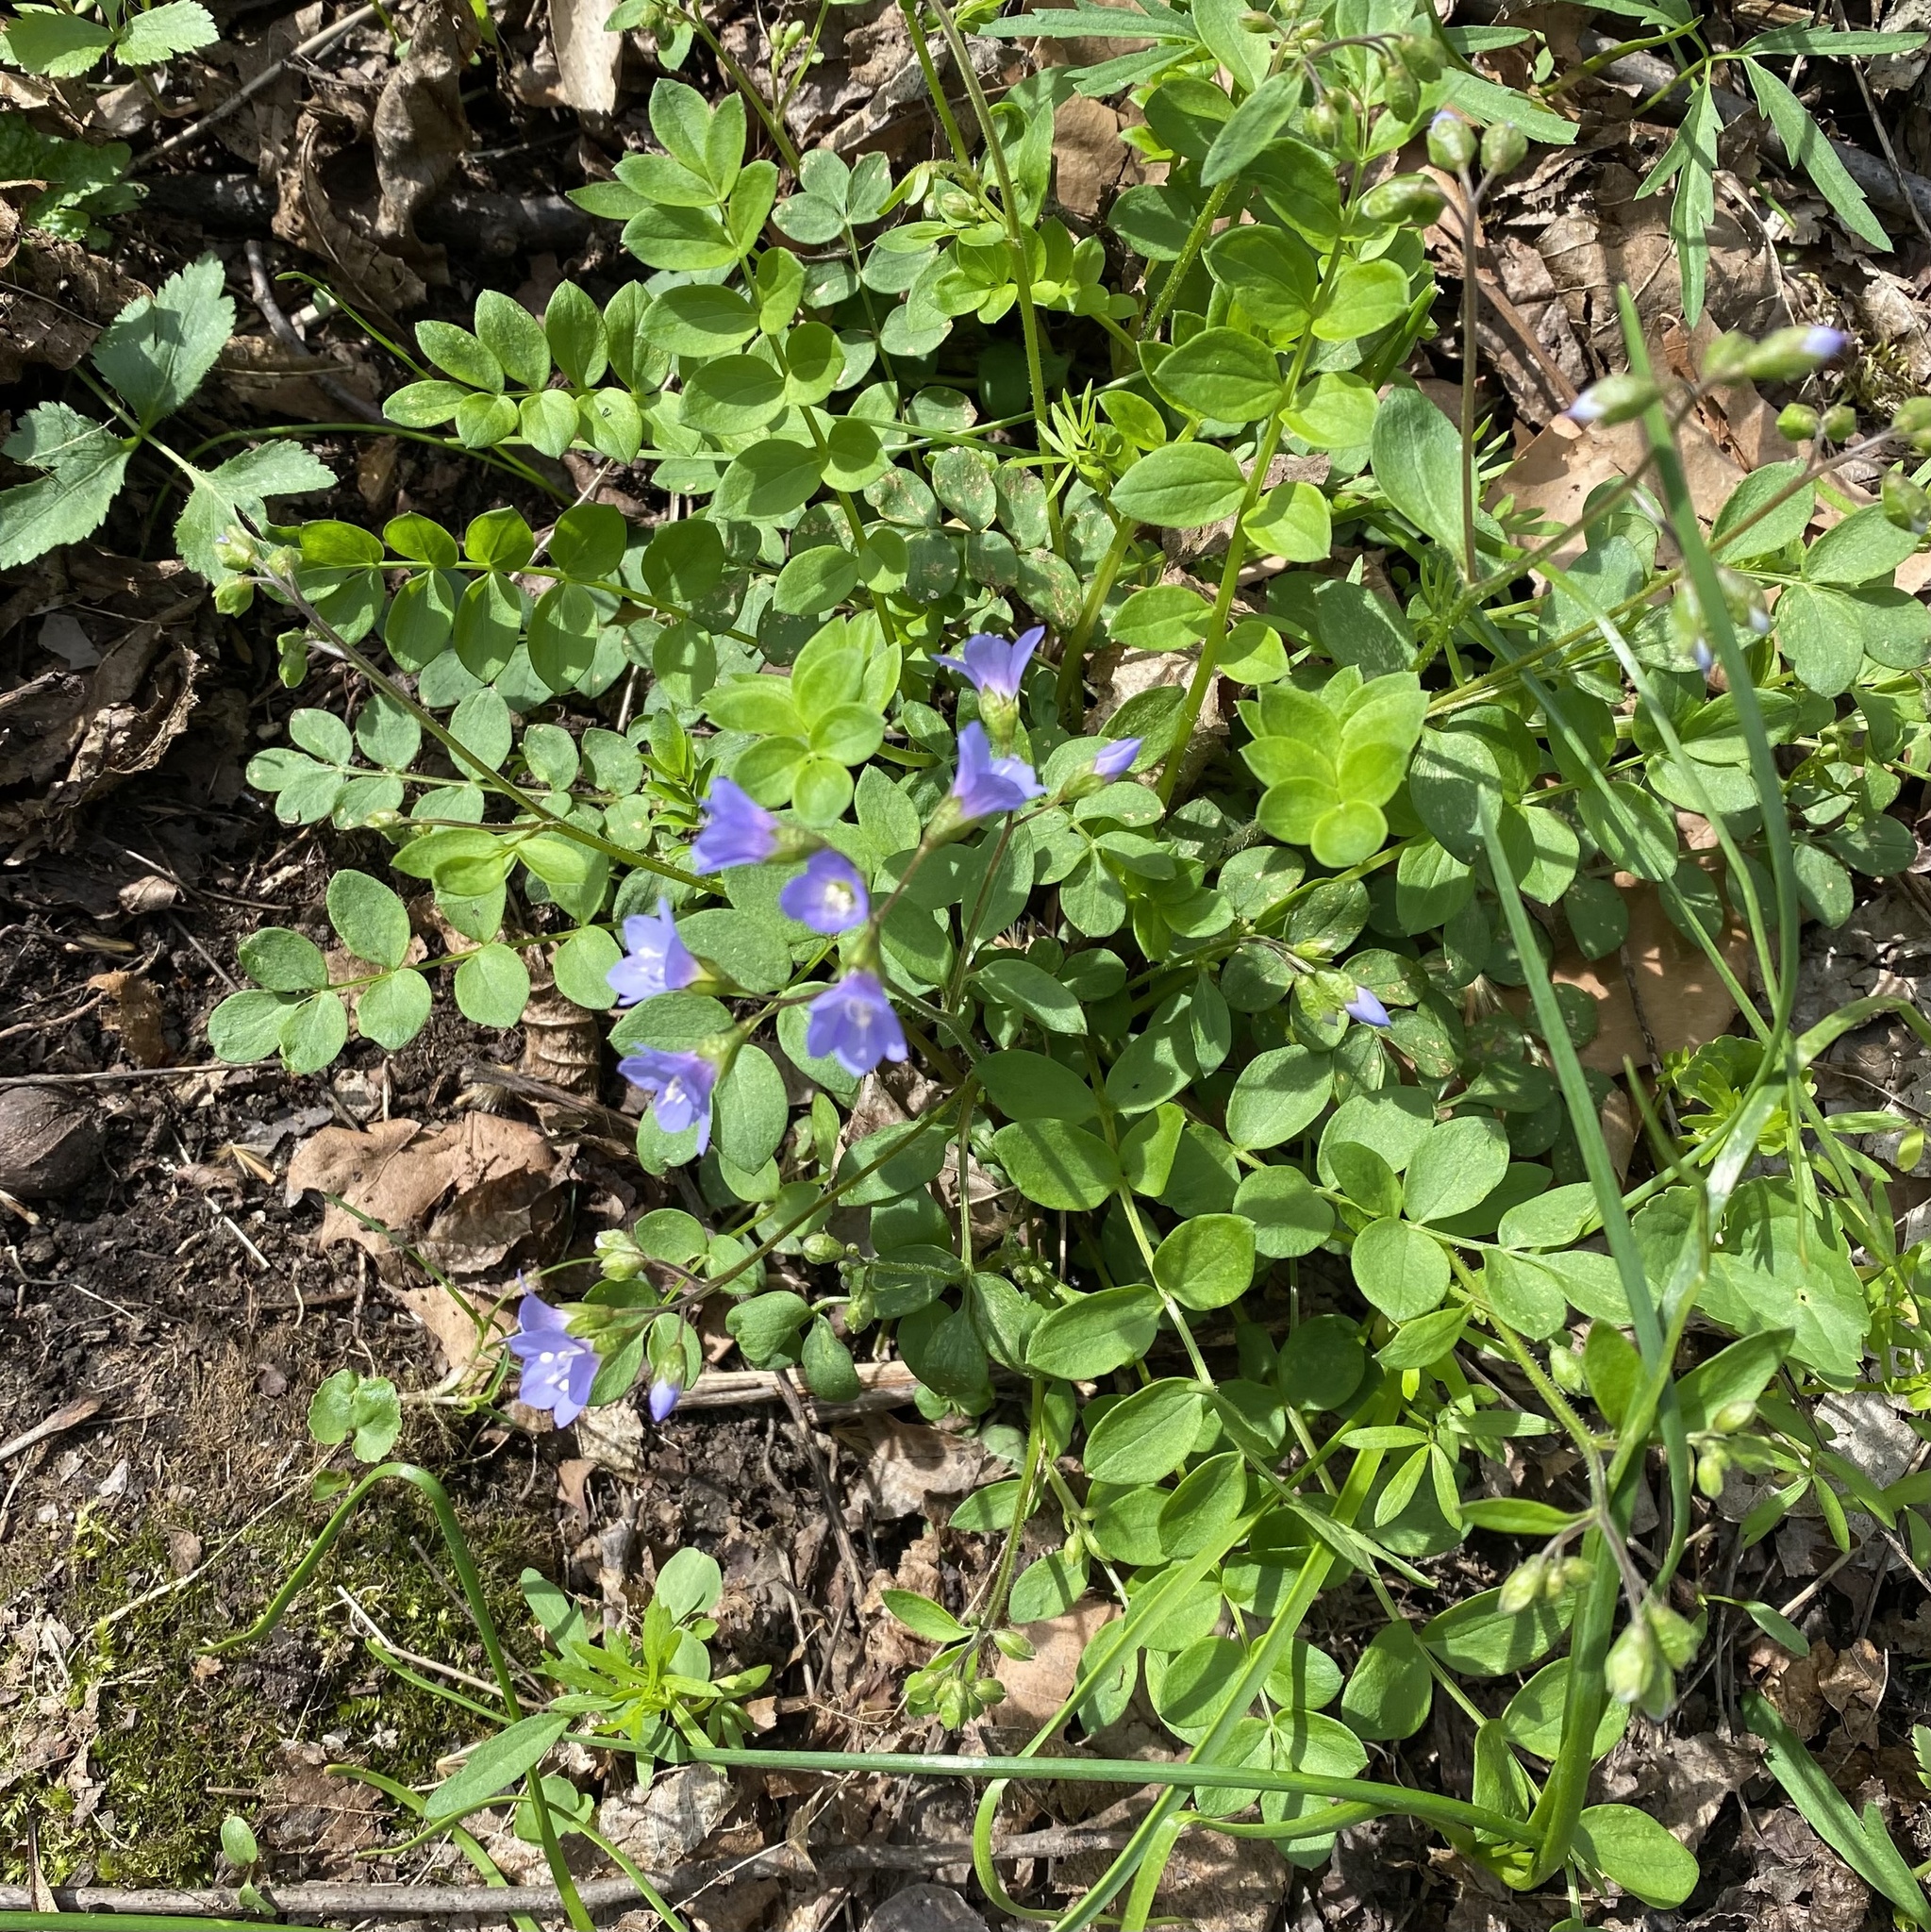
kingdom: Plantae
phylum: Tracheophyta
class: Magnoliopsida
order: Ericales
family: Polemoniaceae
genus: Polemonium
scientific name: Polemonium reptans
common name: Creeping jacob's-ladder
